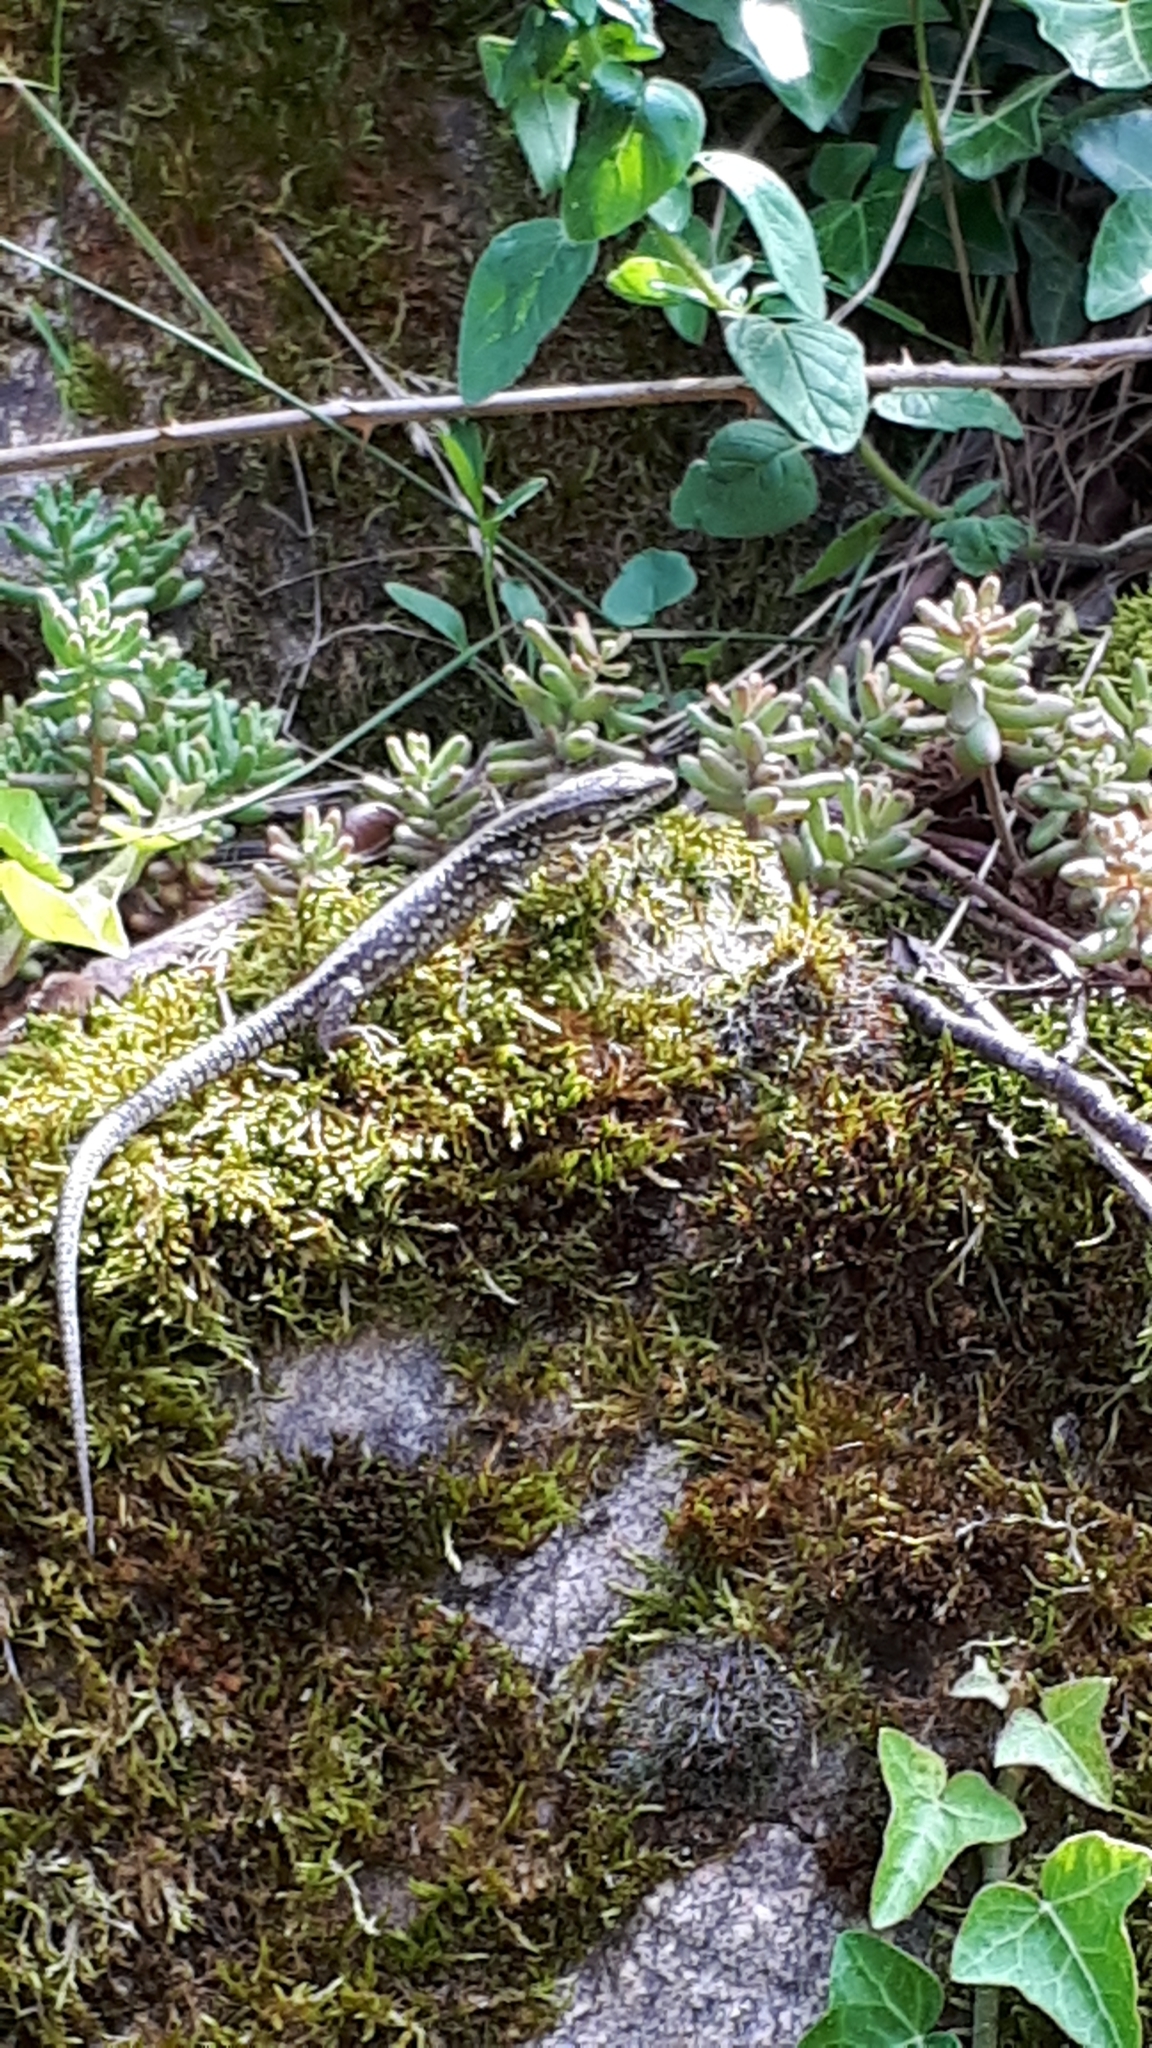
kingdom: Animalia
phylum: Chordata
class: Squamata
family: Lacertidae
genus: Podarcis
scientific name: Podarcis muralis
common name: Common wall lizard
